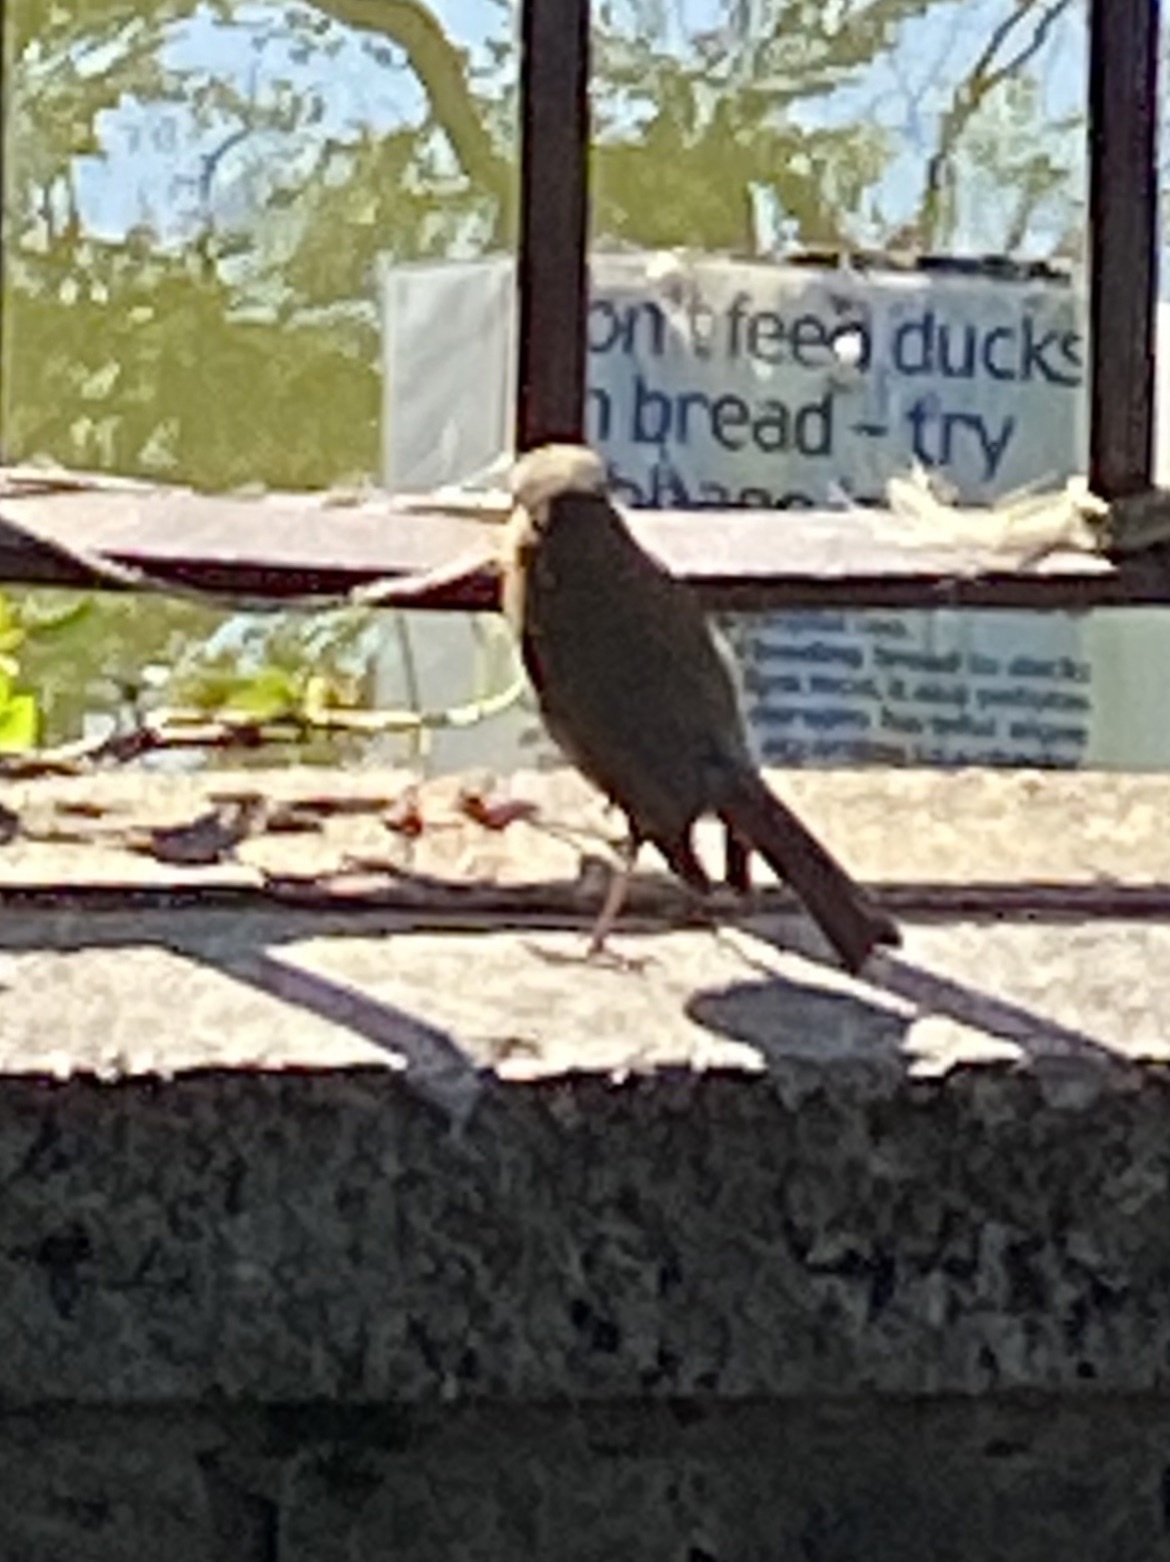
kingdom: Animalia
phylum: Chordata
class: Aves
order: Passeriformes
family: Muscicapidae
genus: Erithacus
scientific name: Erithacus rubecula
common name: European robin
